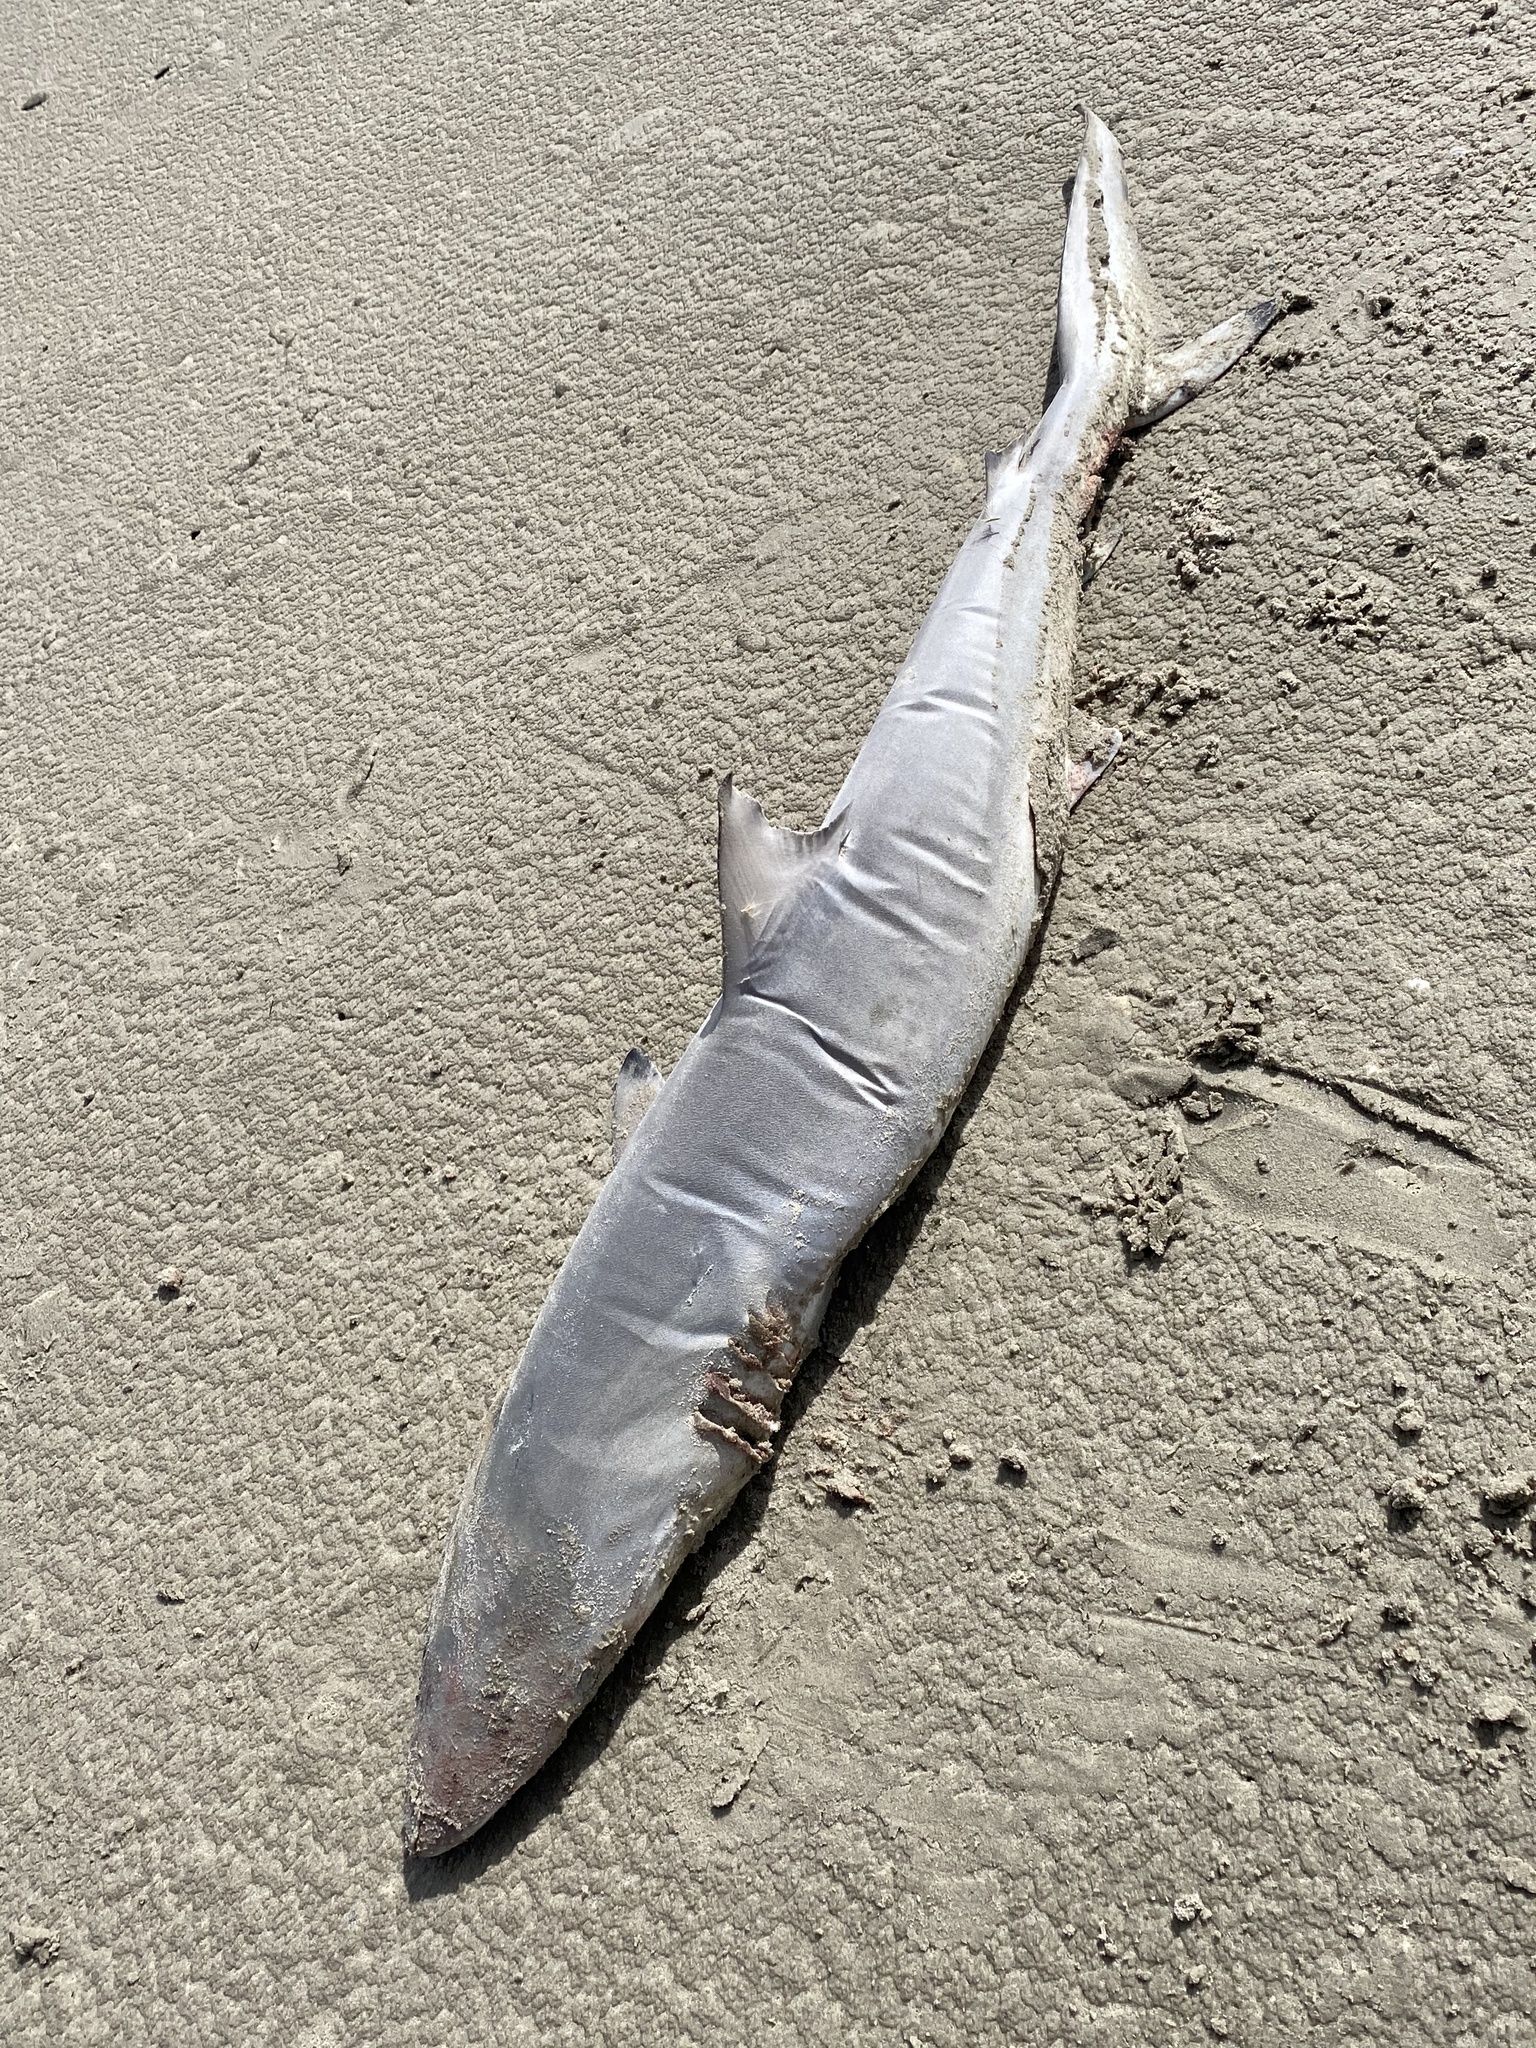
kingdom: Animalia
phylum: Chordata
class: Elasmobranchii
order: Carcharhiniformes
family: Carcharhinidae
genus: Carcharhinus
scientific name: Carcharhinus brevipinna
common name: Spinner shark
